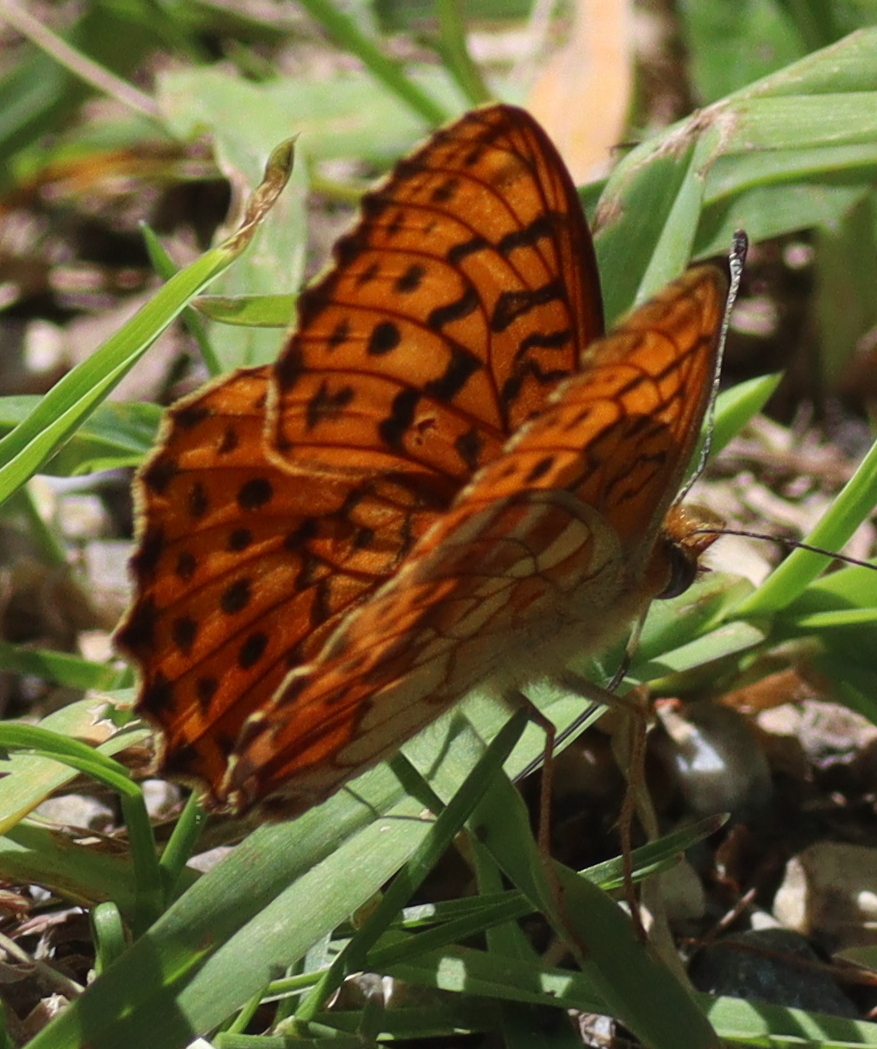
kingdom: Animalia
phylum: Arthropoda
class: Insecta
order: Lepidoptera
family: Nymphalidae
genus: Brenthis
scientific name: Brenthis daphne
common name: Marbled fritillary
